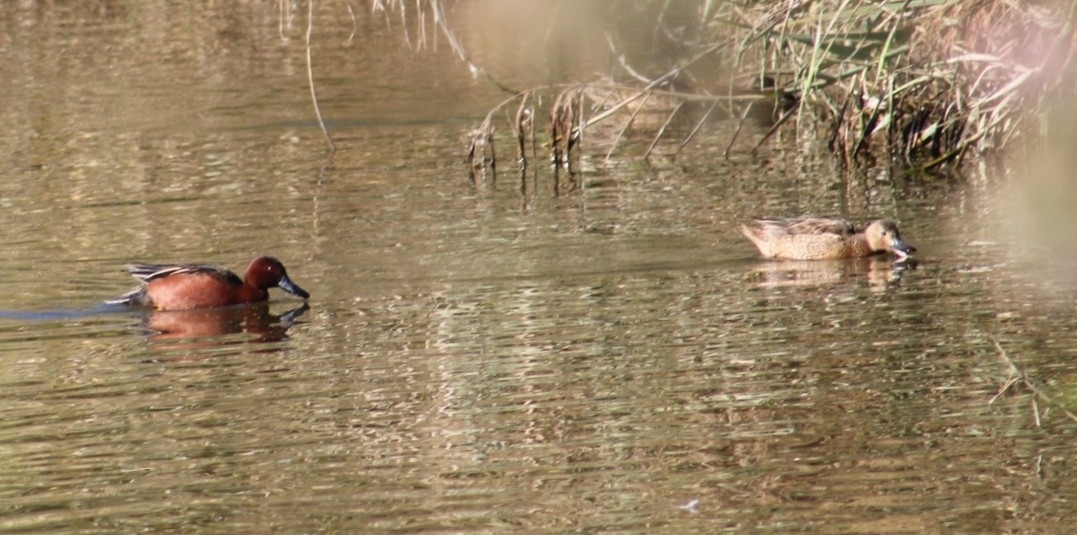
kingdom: Animalia
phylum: Chordata
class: Aves
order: Anseriformes
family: Anatidae
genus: Spatula
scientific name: Spatula cyanoptera
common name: Cinnamon teal
